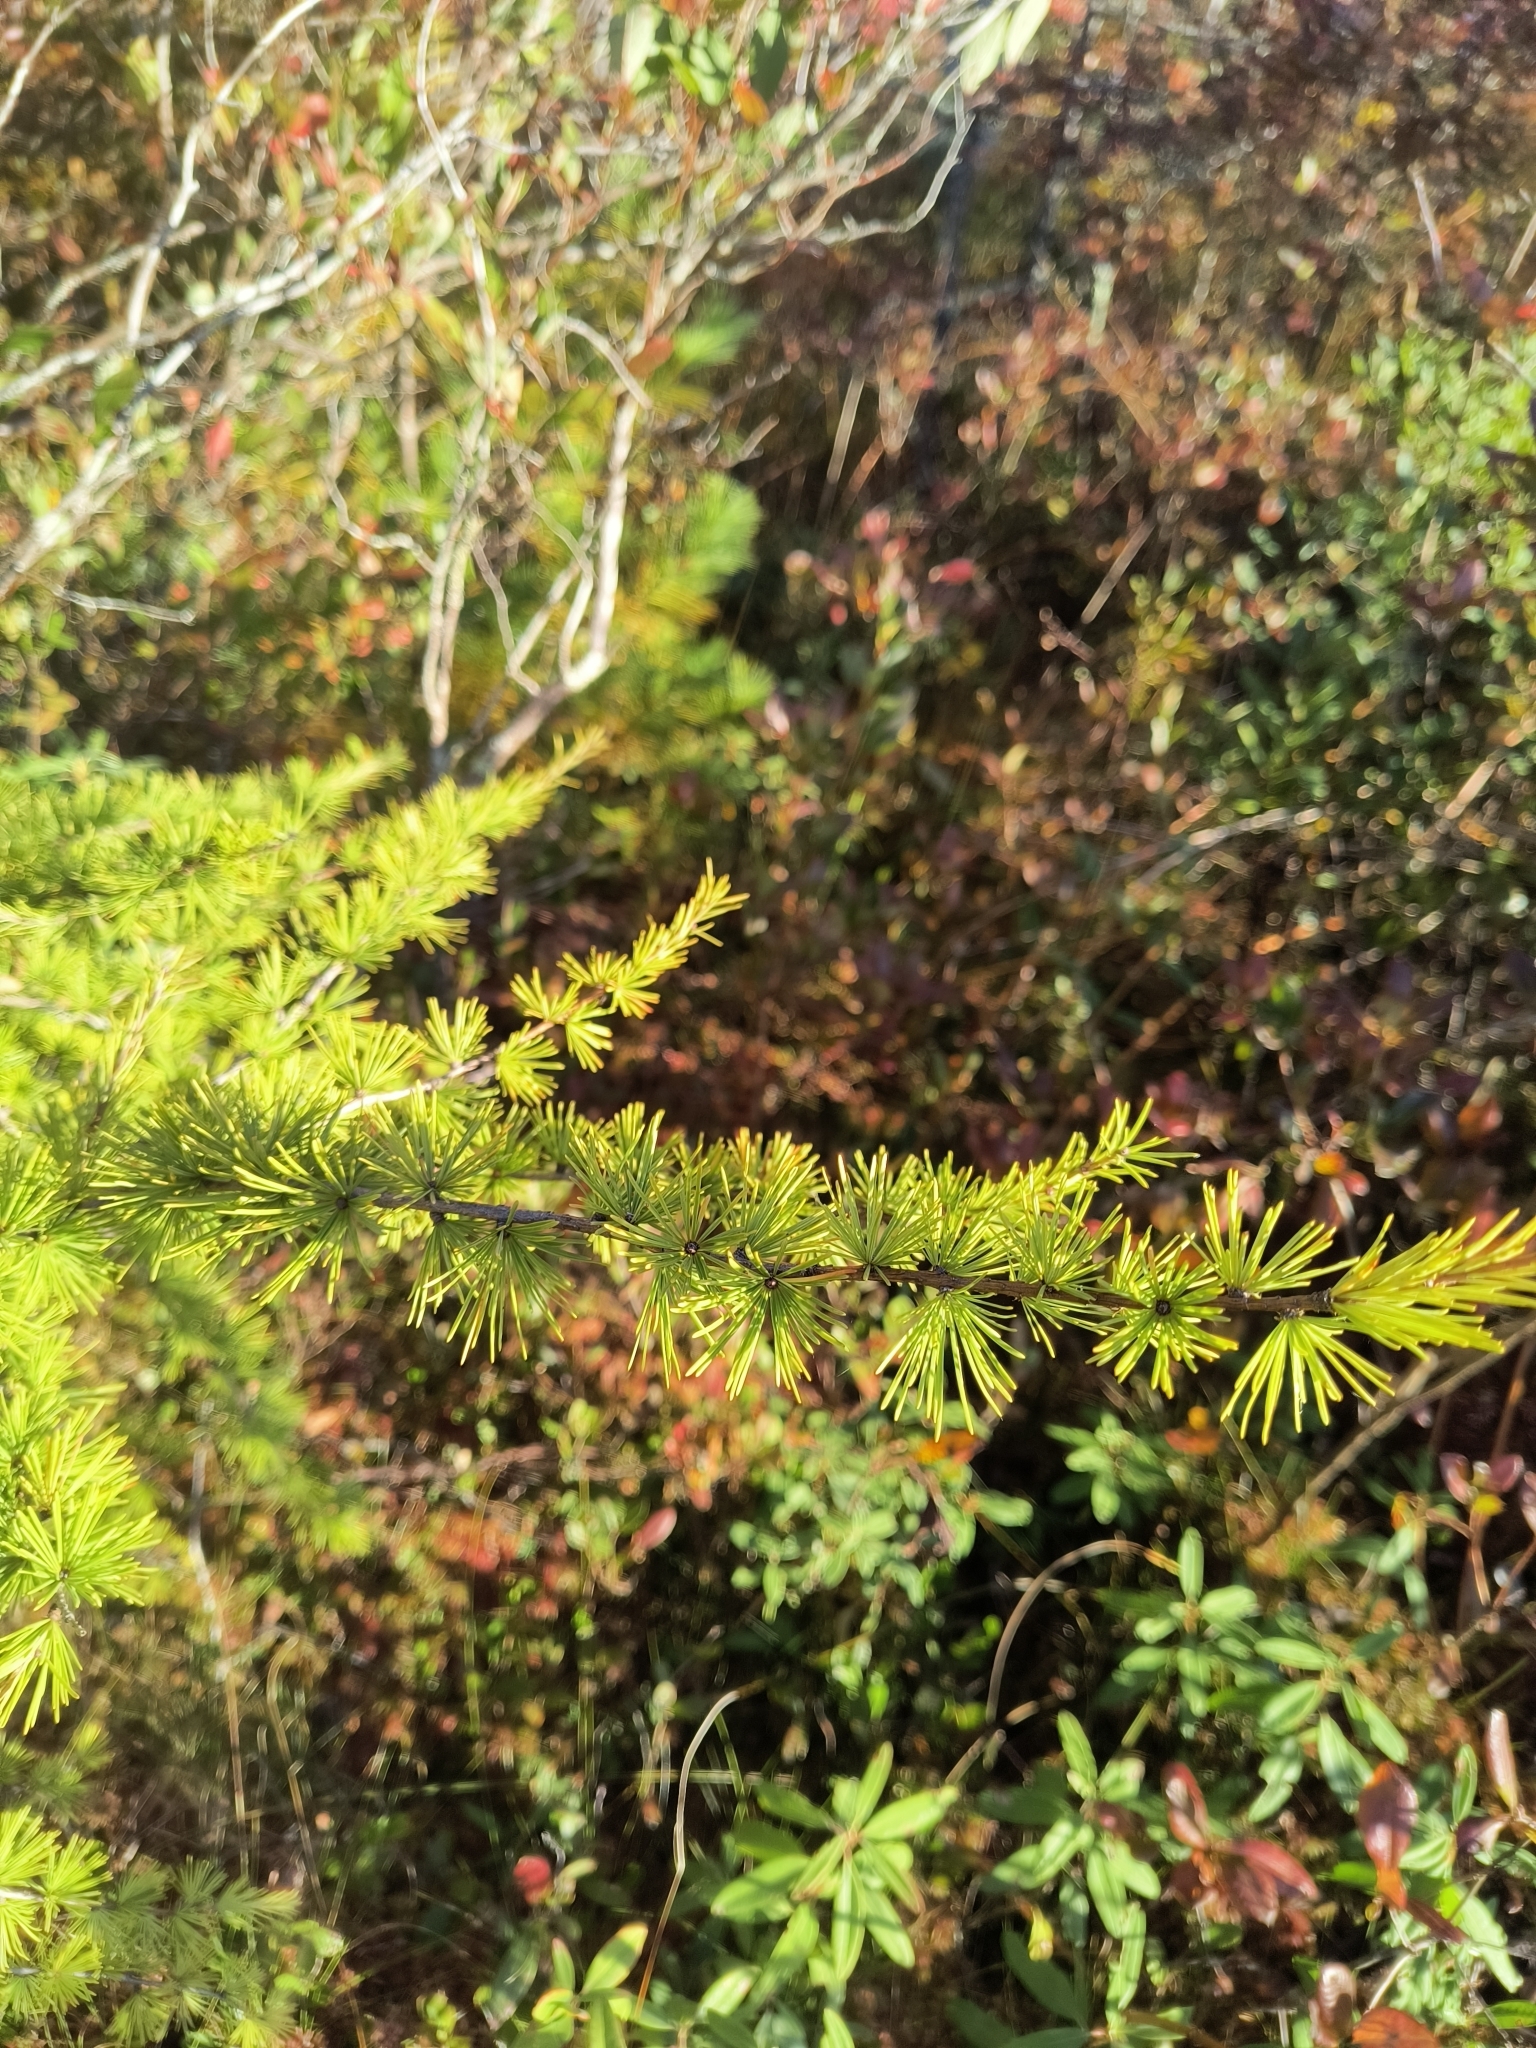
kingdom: Plantae
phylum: Tracheophyta
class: Pinopsida
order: Pinales
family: Pinaceae
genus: Larix
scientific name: Larix laricina
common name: American larch
